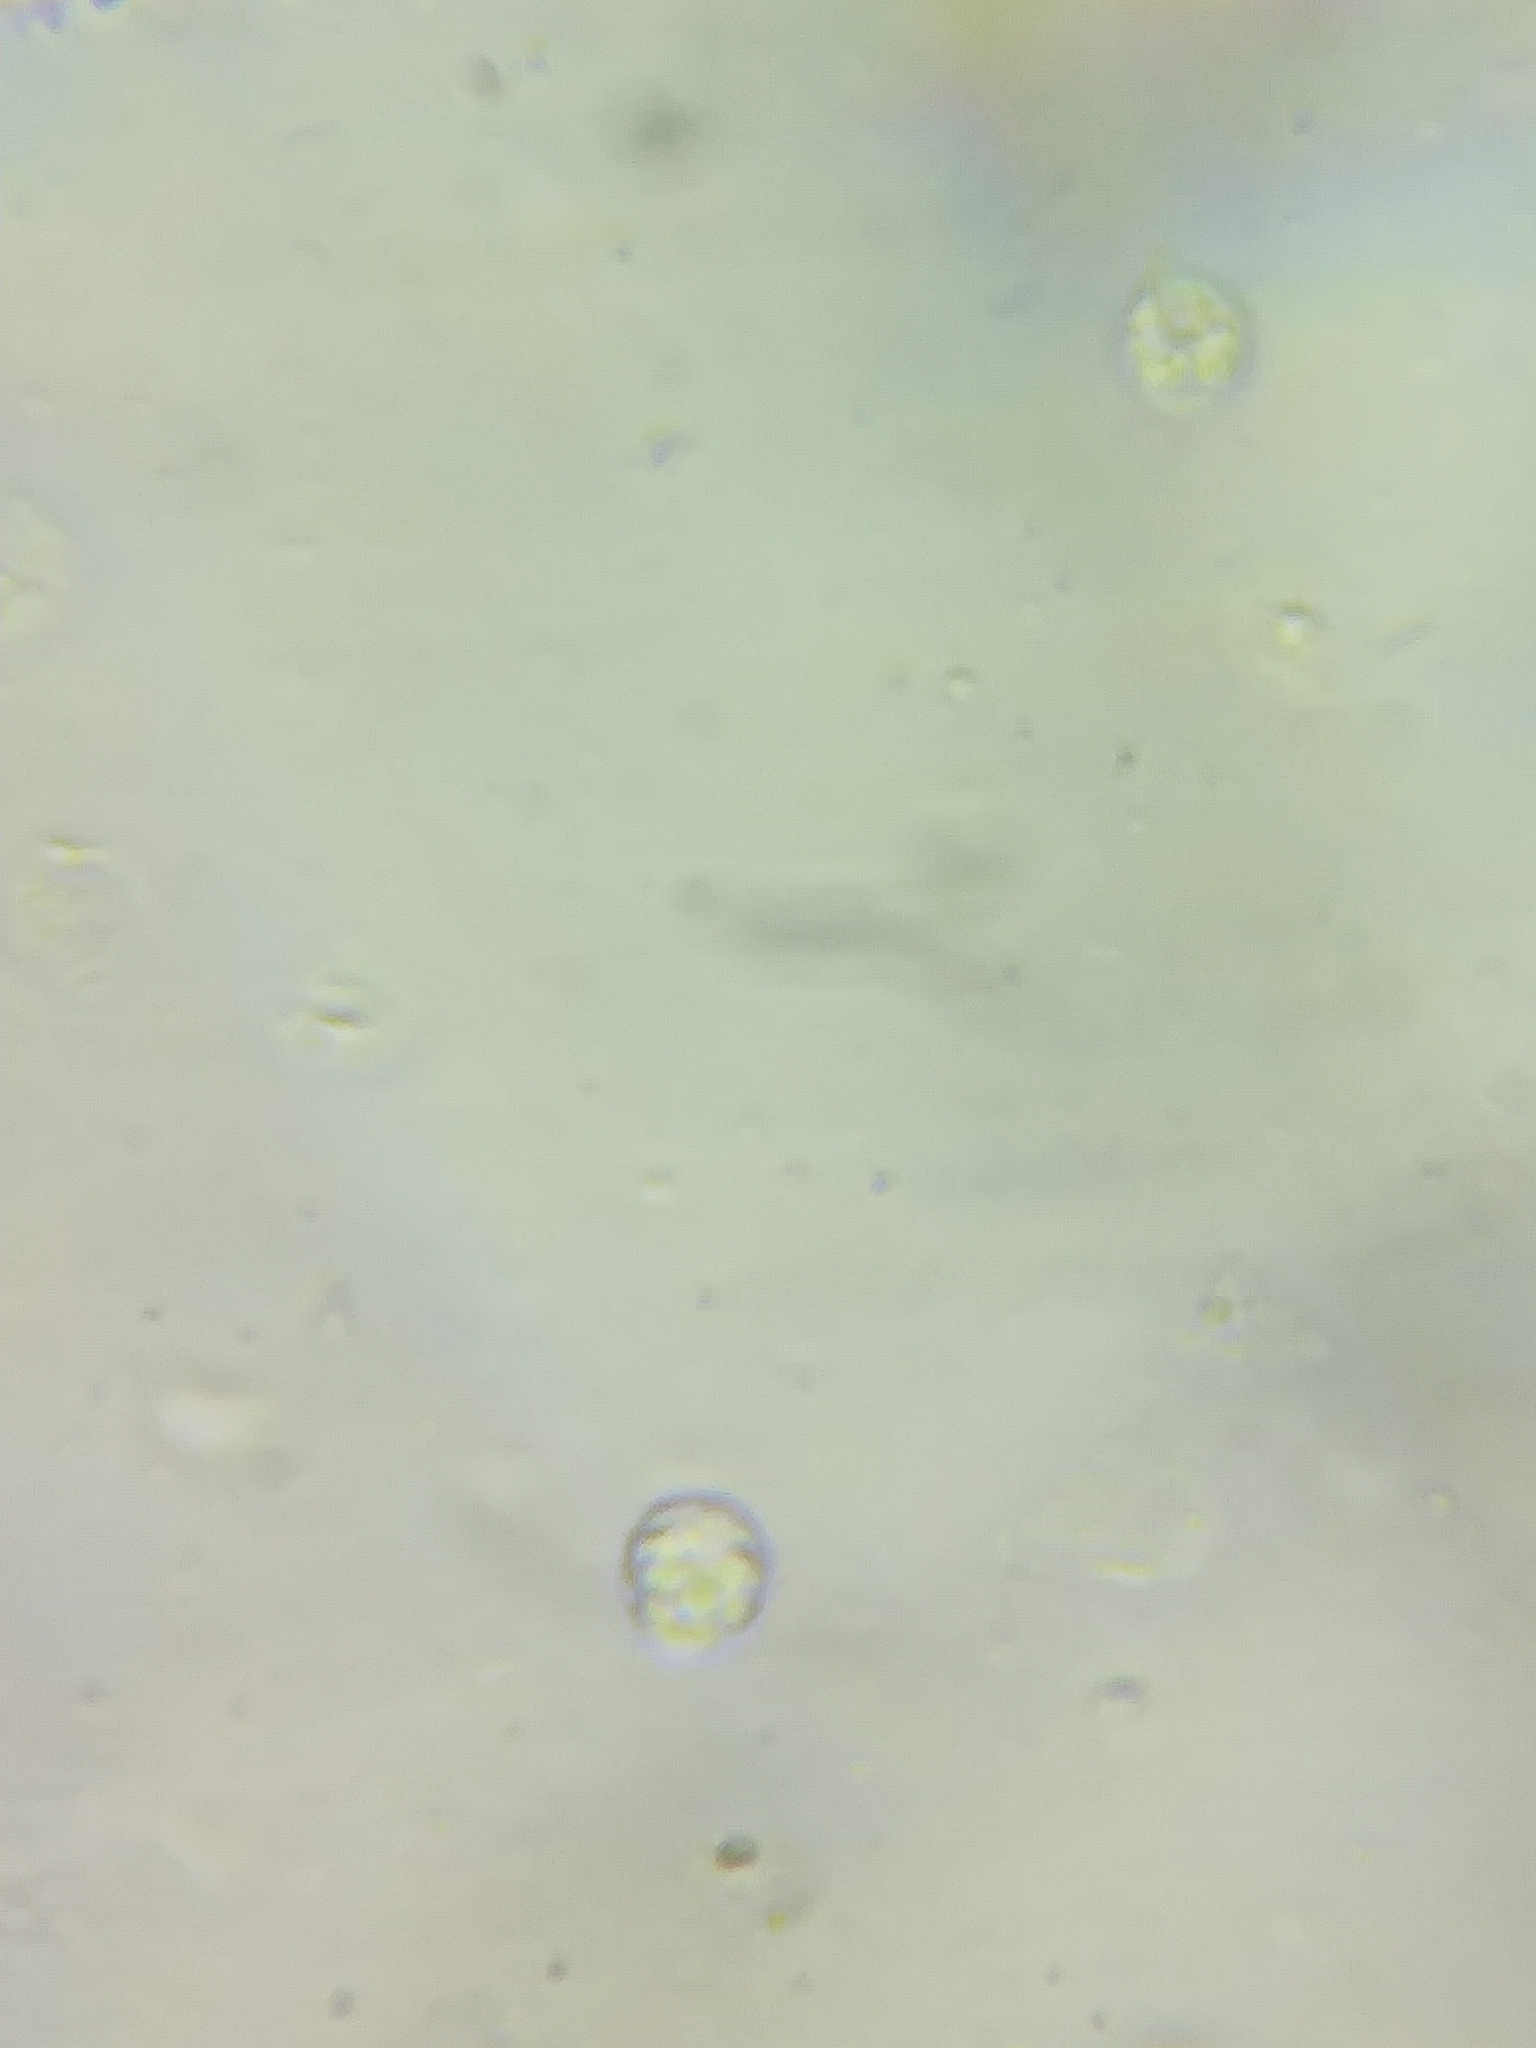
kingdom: Fungi
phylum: Basidiomycota
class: Agaricomycetes
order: Agaricales
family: Tricholomataceae
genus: Infundibulicybe
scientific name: Infundibulicybe hongyinpan
